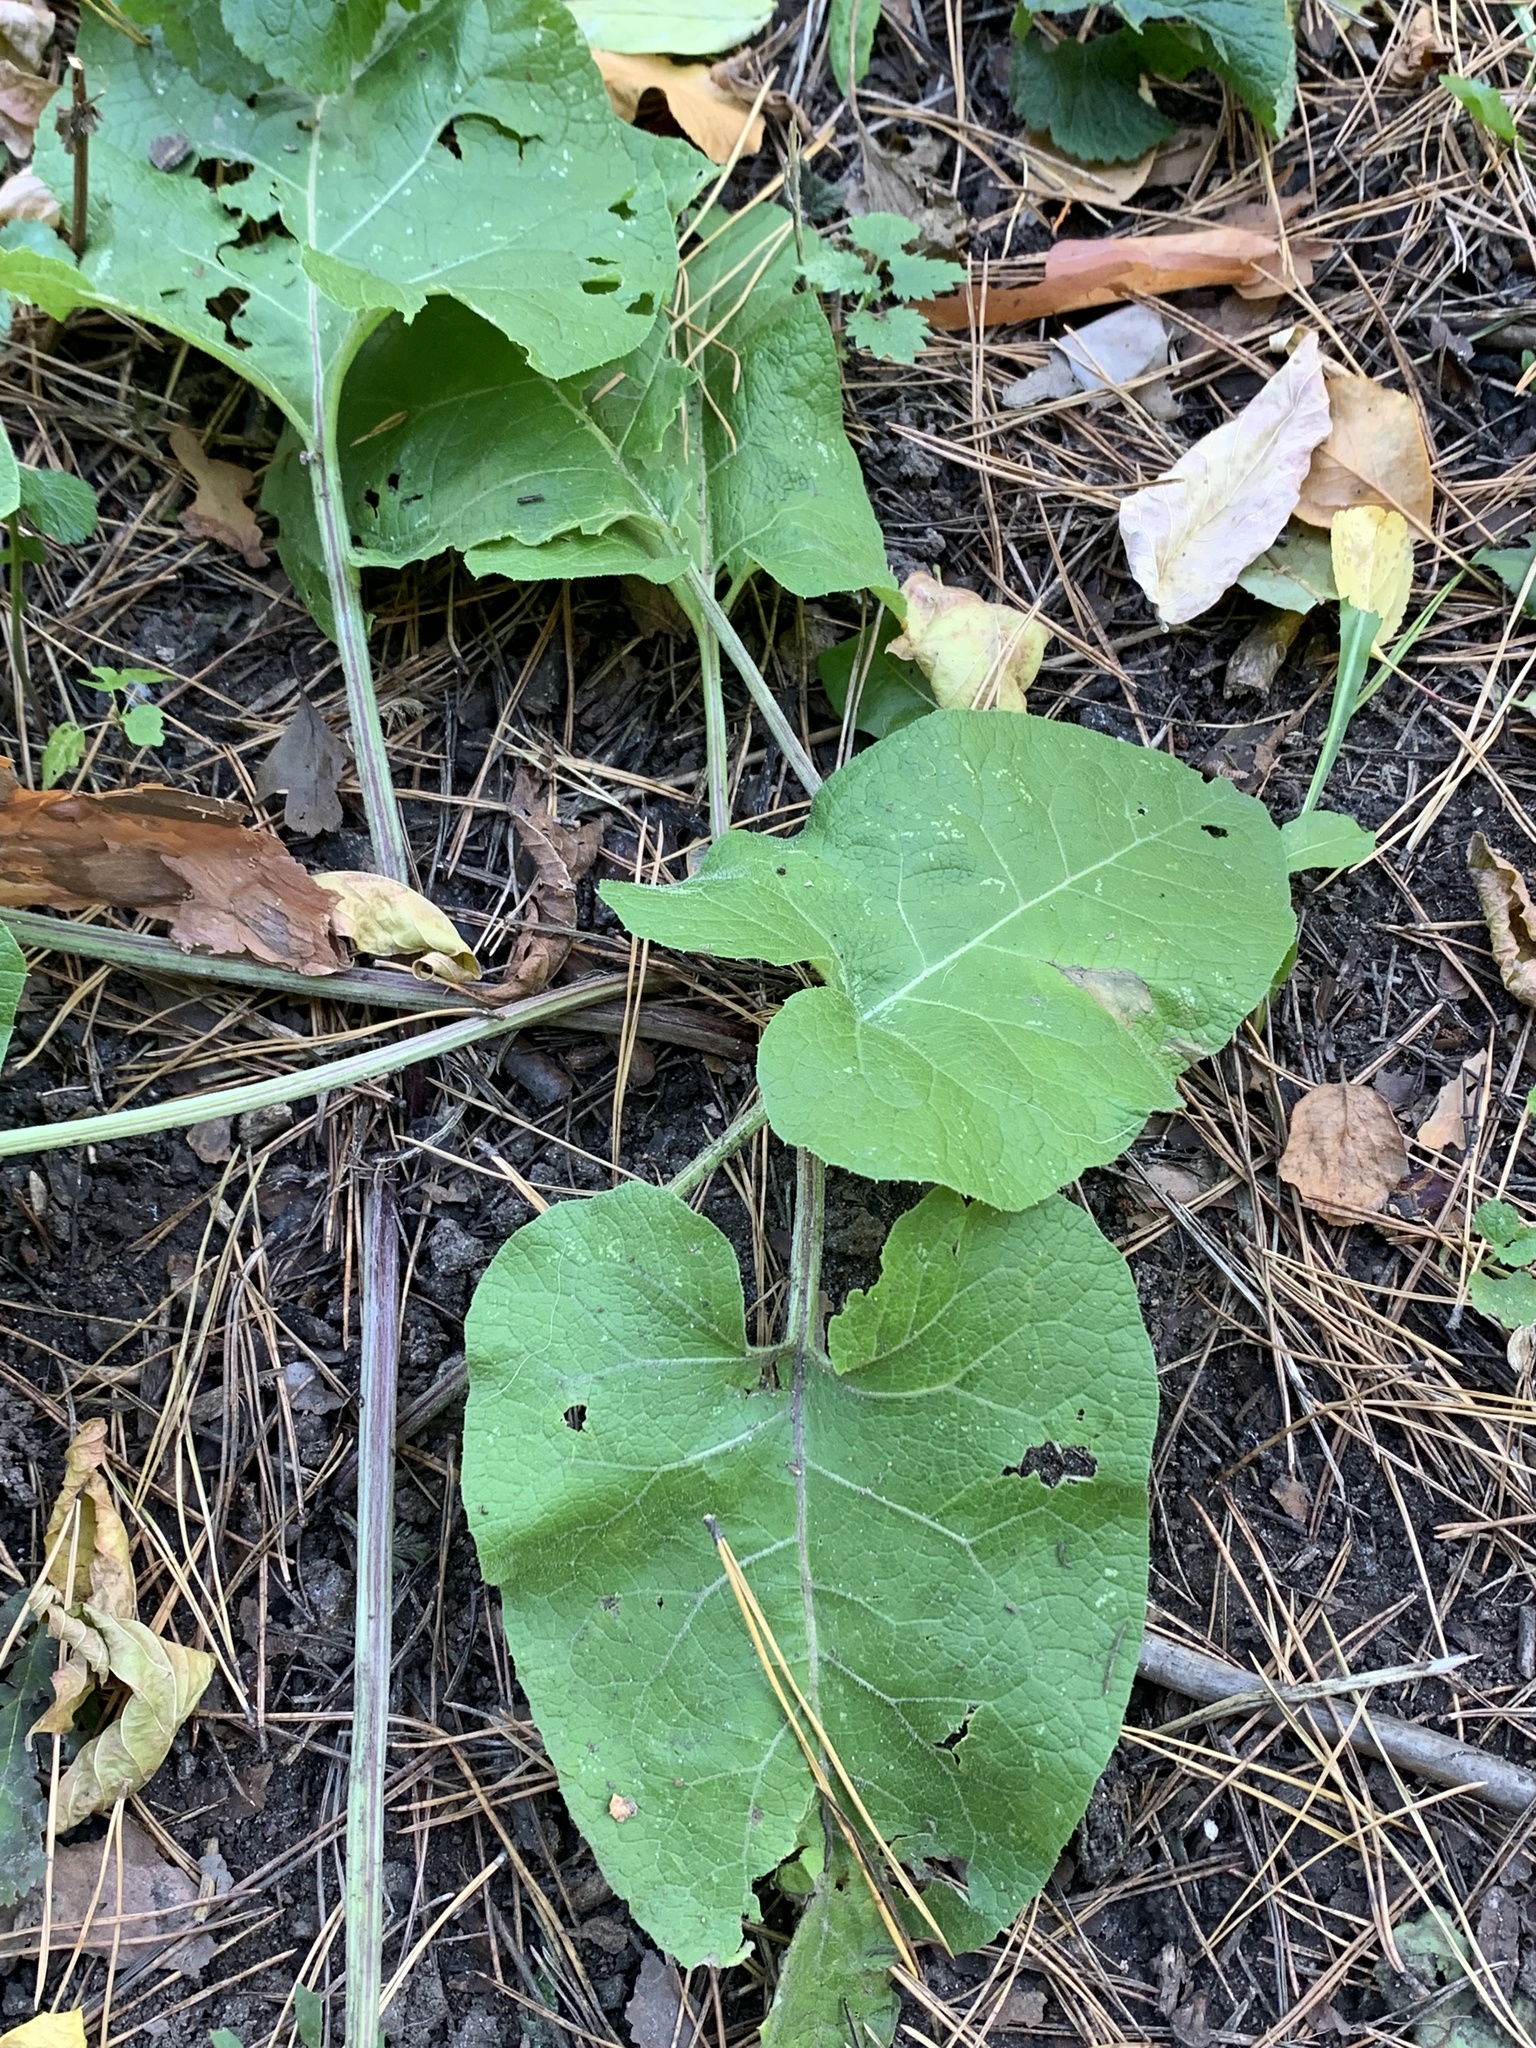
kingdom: Plantae
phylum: Tracheophyta
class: Magnoliopsida
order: Asterales
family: Asteraceae
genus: Arctium
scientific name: Arctium
